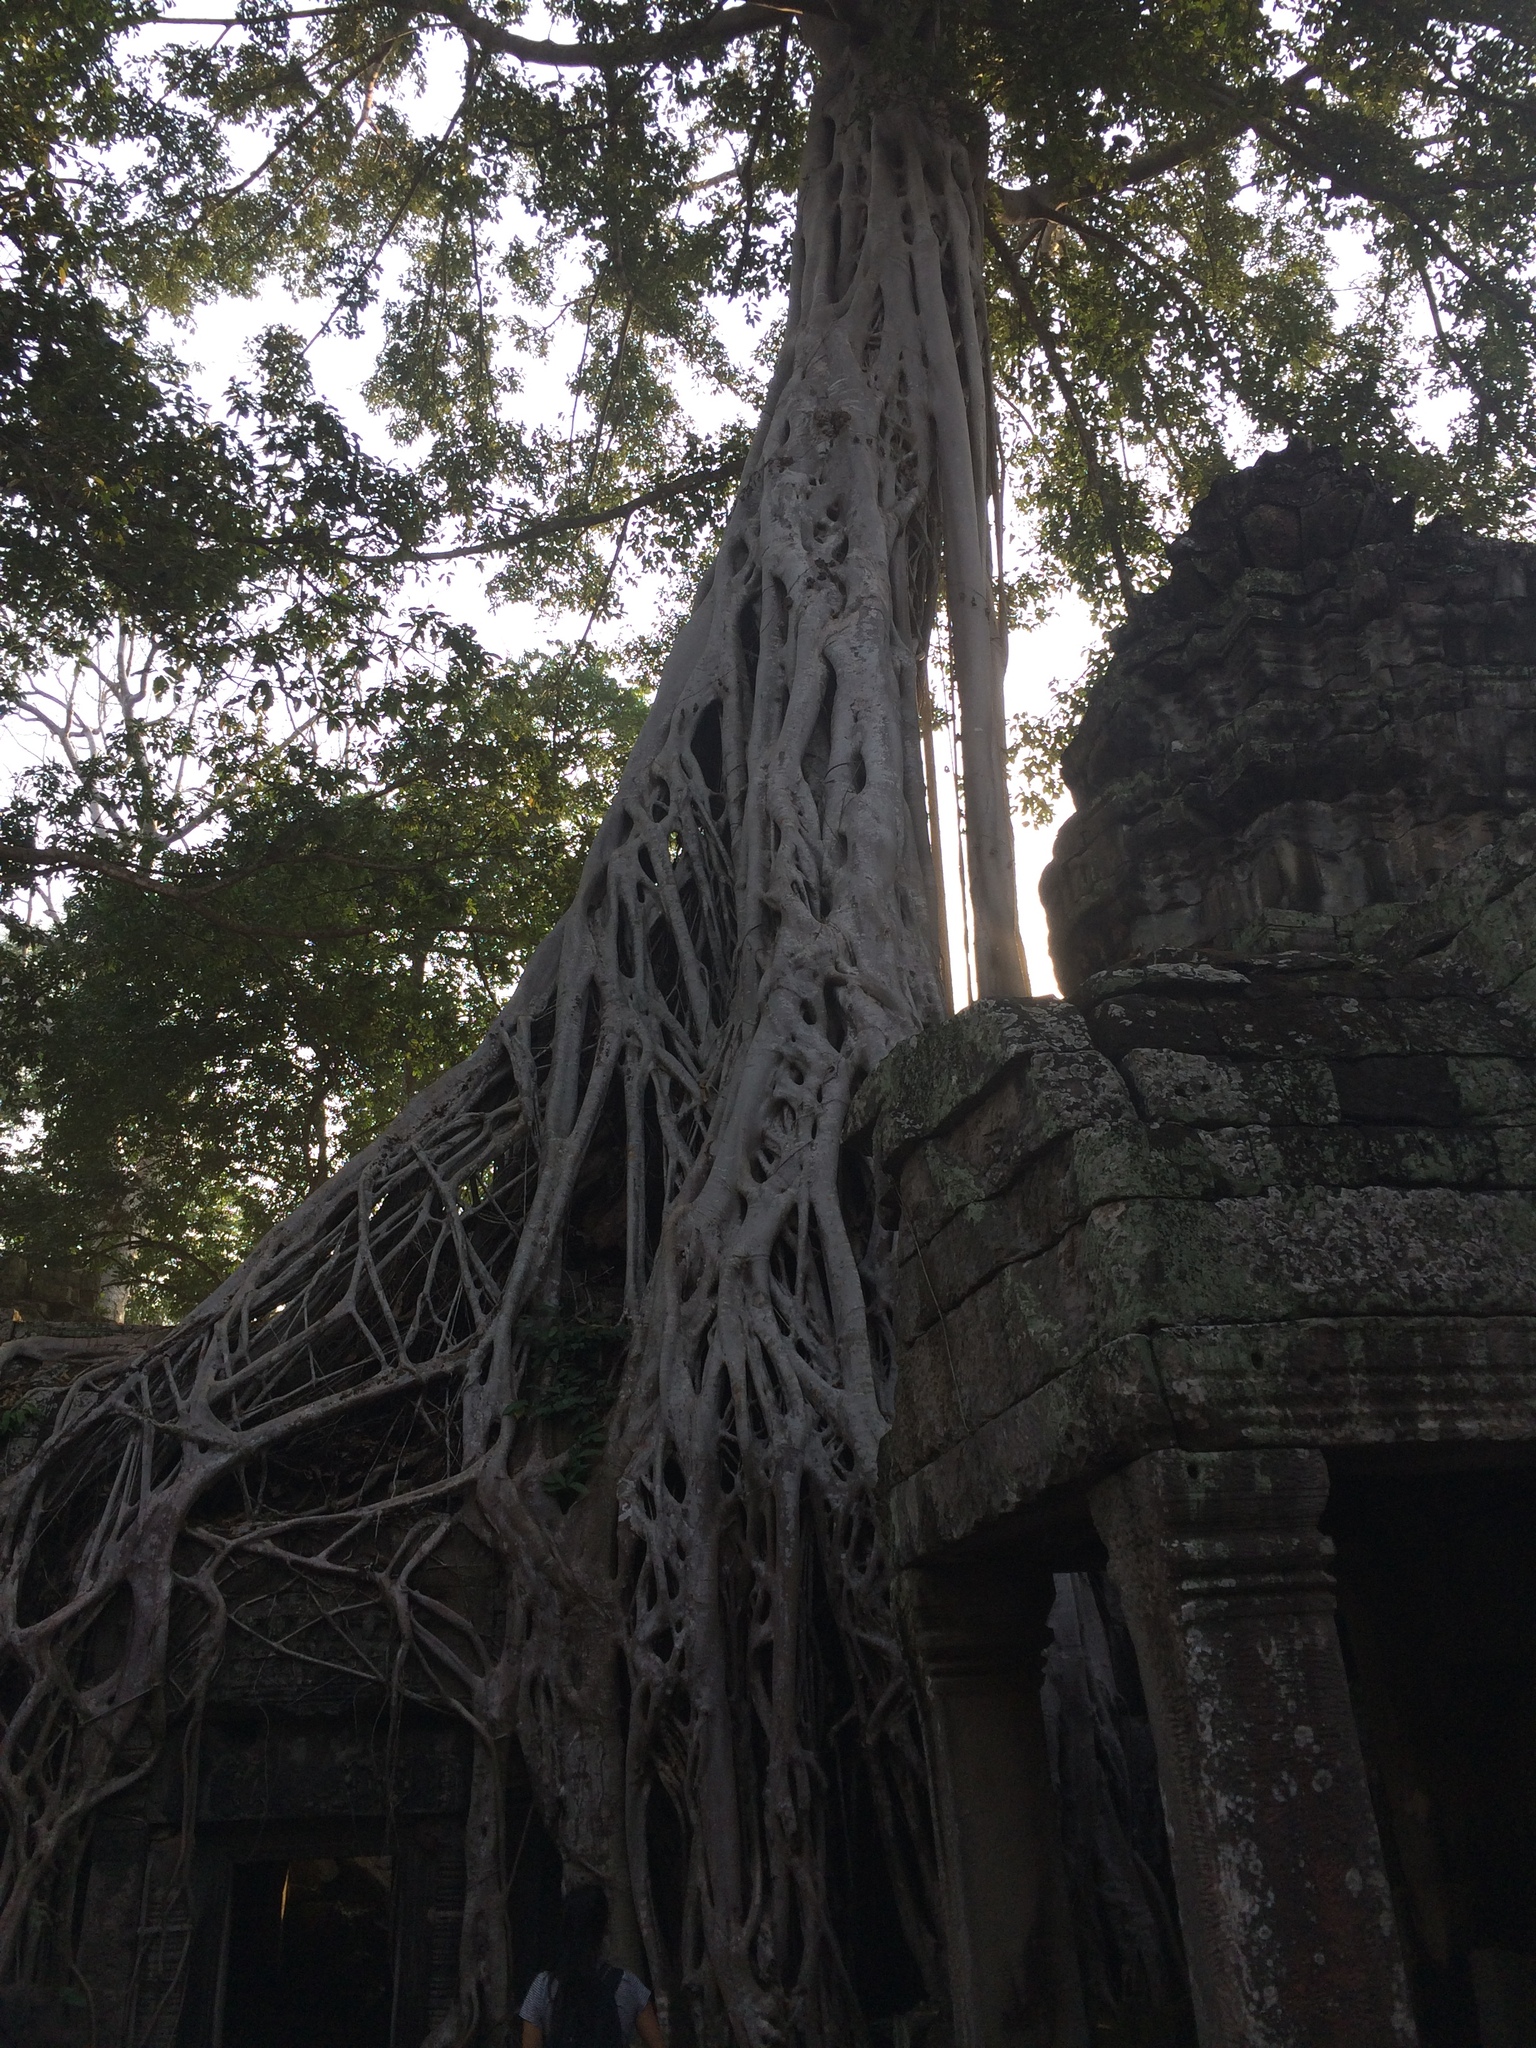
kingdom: Plantae
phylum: Tracheophyta
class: Magnoliopsida
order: Rosales
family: Moraceae
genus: Ficus
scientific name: Ficus tinctoria
